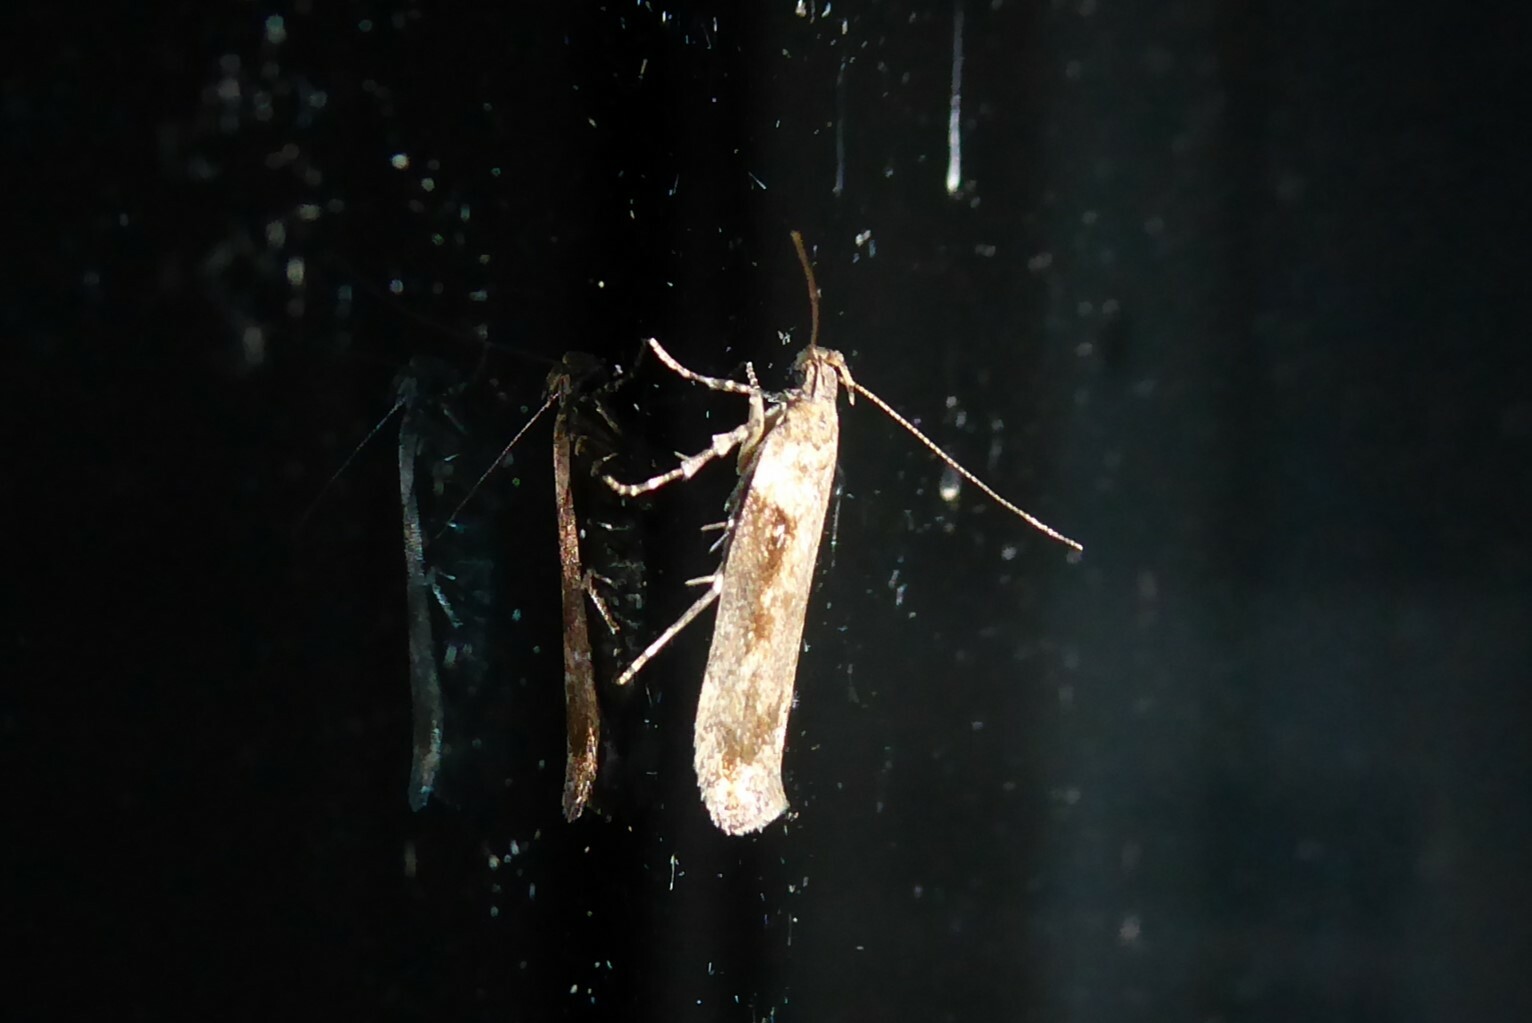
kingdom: Animalia
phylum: Arthropoda
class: Insecta
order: Lepidoptera
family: Gelechiidae
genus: Symmetrischema
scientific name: Symmetrischema tangolias
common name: Moth
